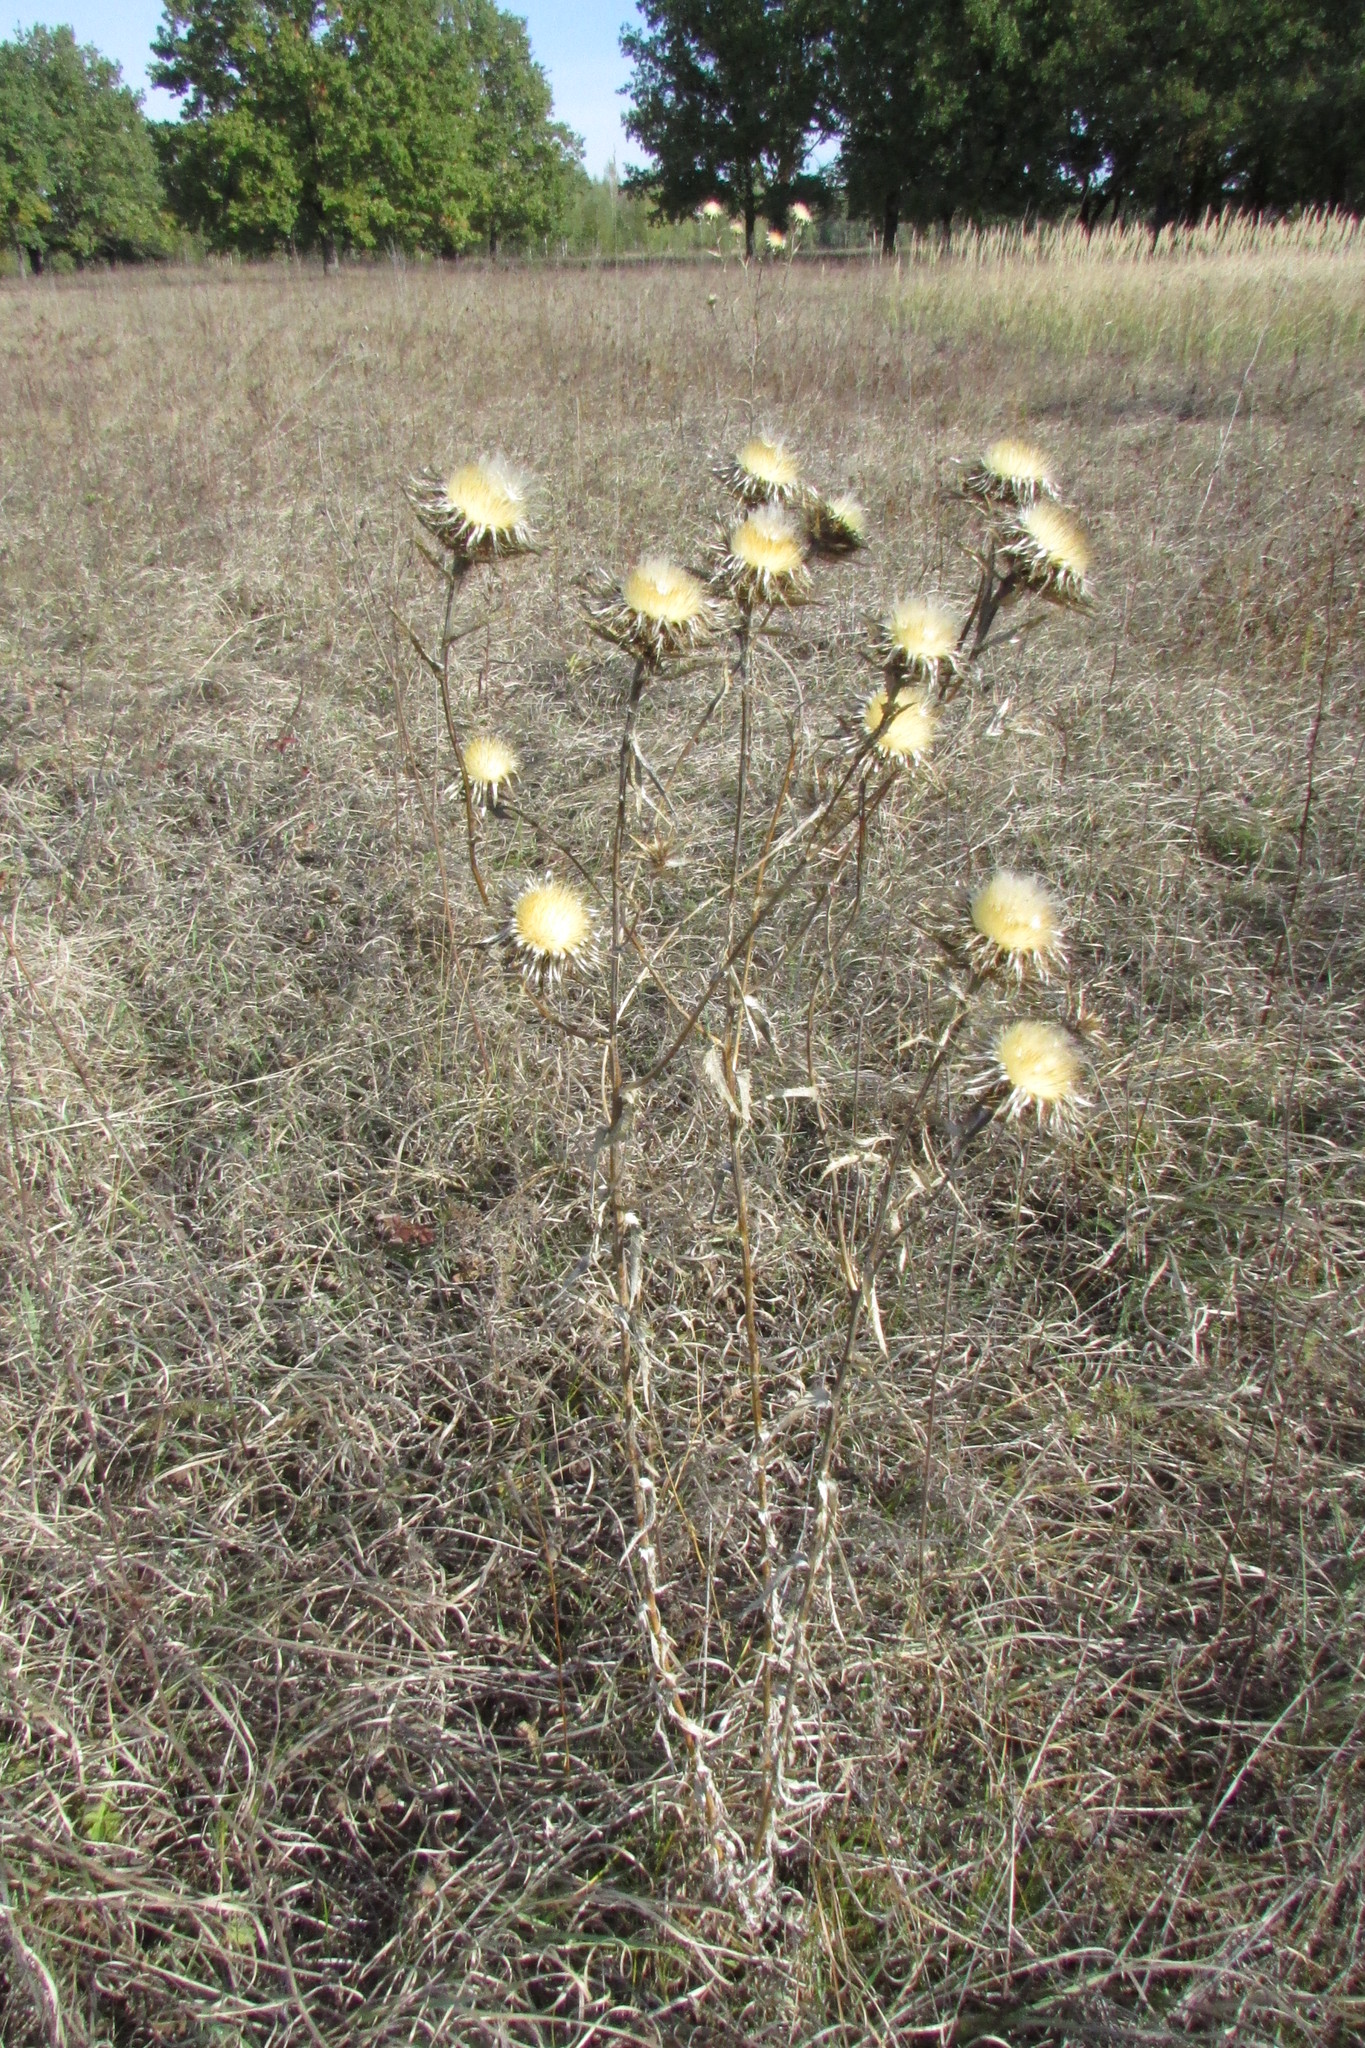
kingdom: Plantae
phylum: Tracheophyta
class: Magnoliopsida
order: Asterales
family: Asteraceae
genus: Carlina
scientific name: Carlina biebersteinii
